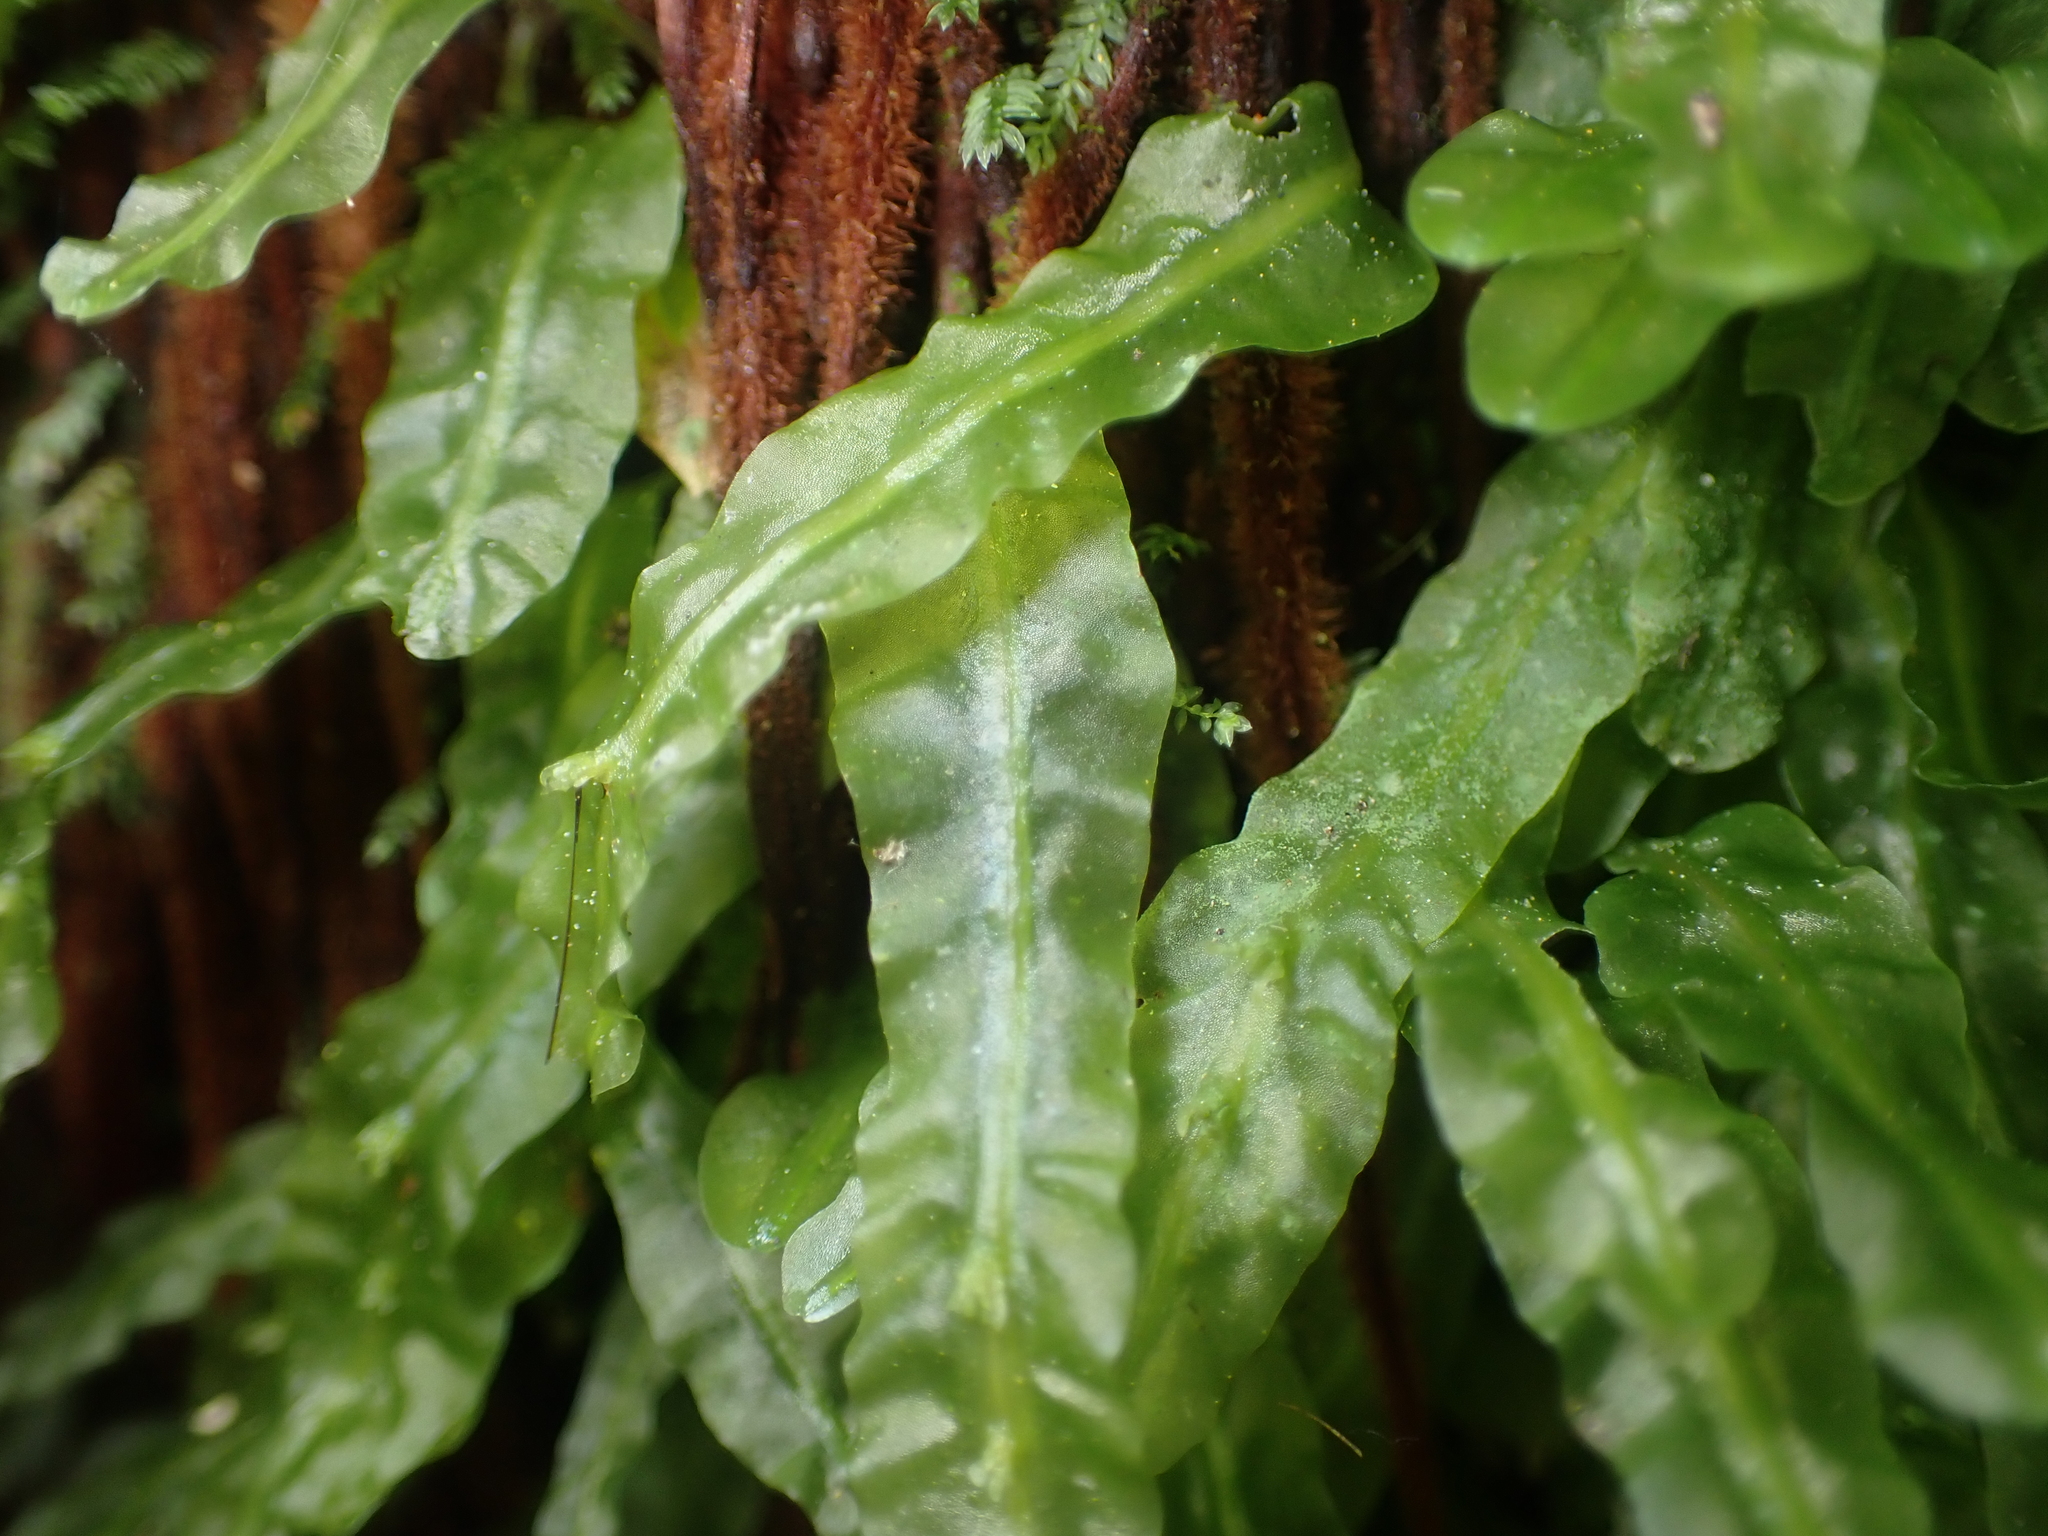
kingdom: Plantae
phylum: Marchantiophyta
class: Jungermanniopsida
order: Pallaviciniales
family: Pallaviciniaceae
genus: Symphyogyna
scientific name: Symphyogyna subsimplex
